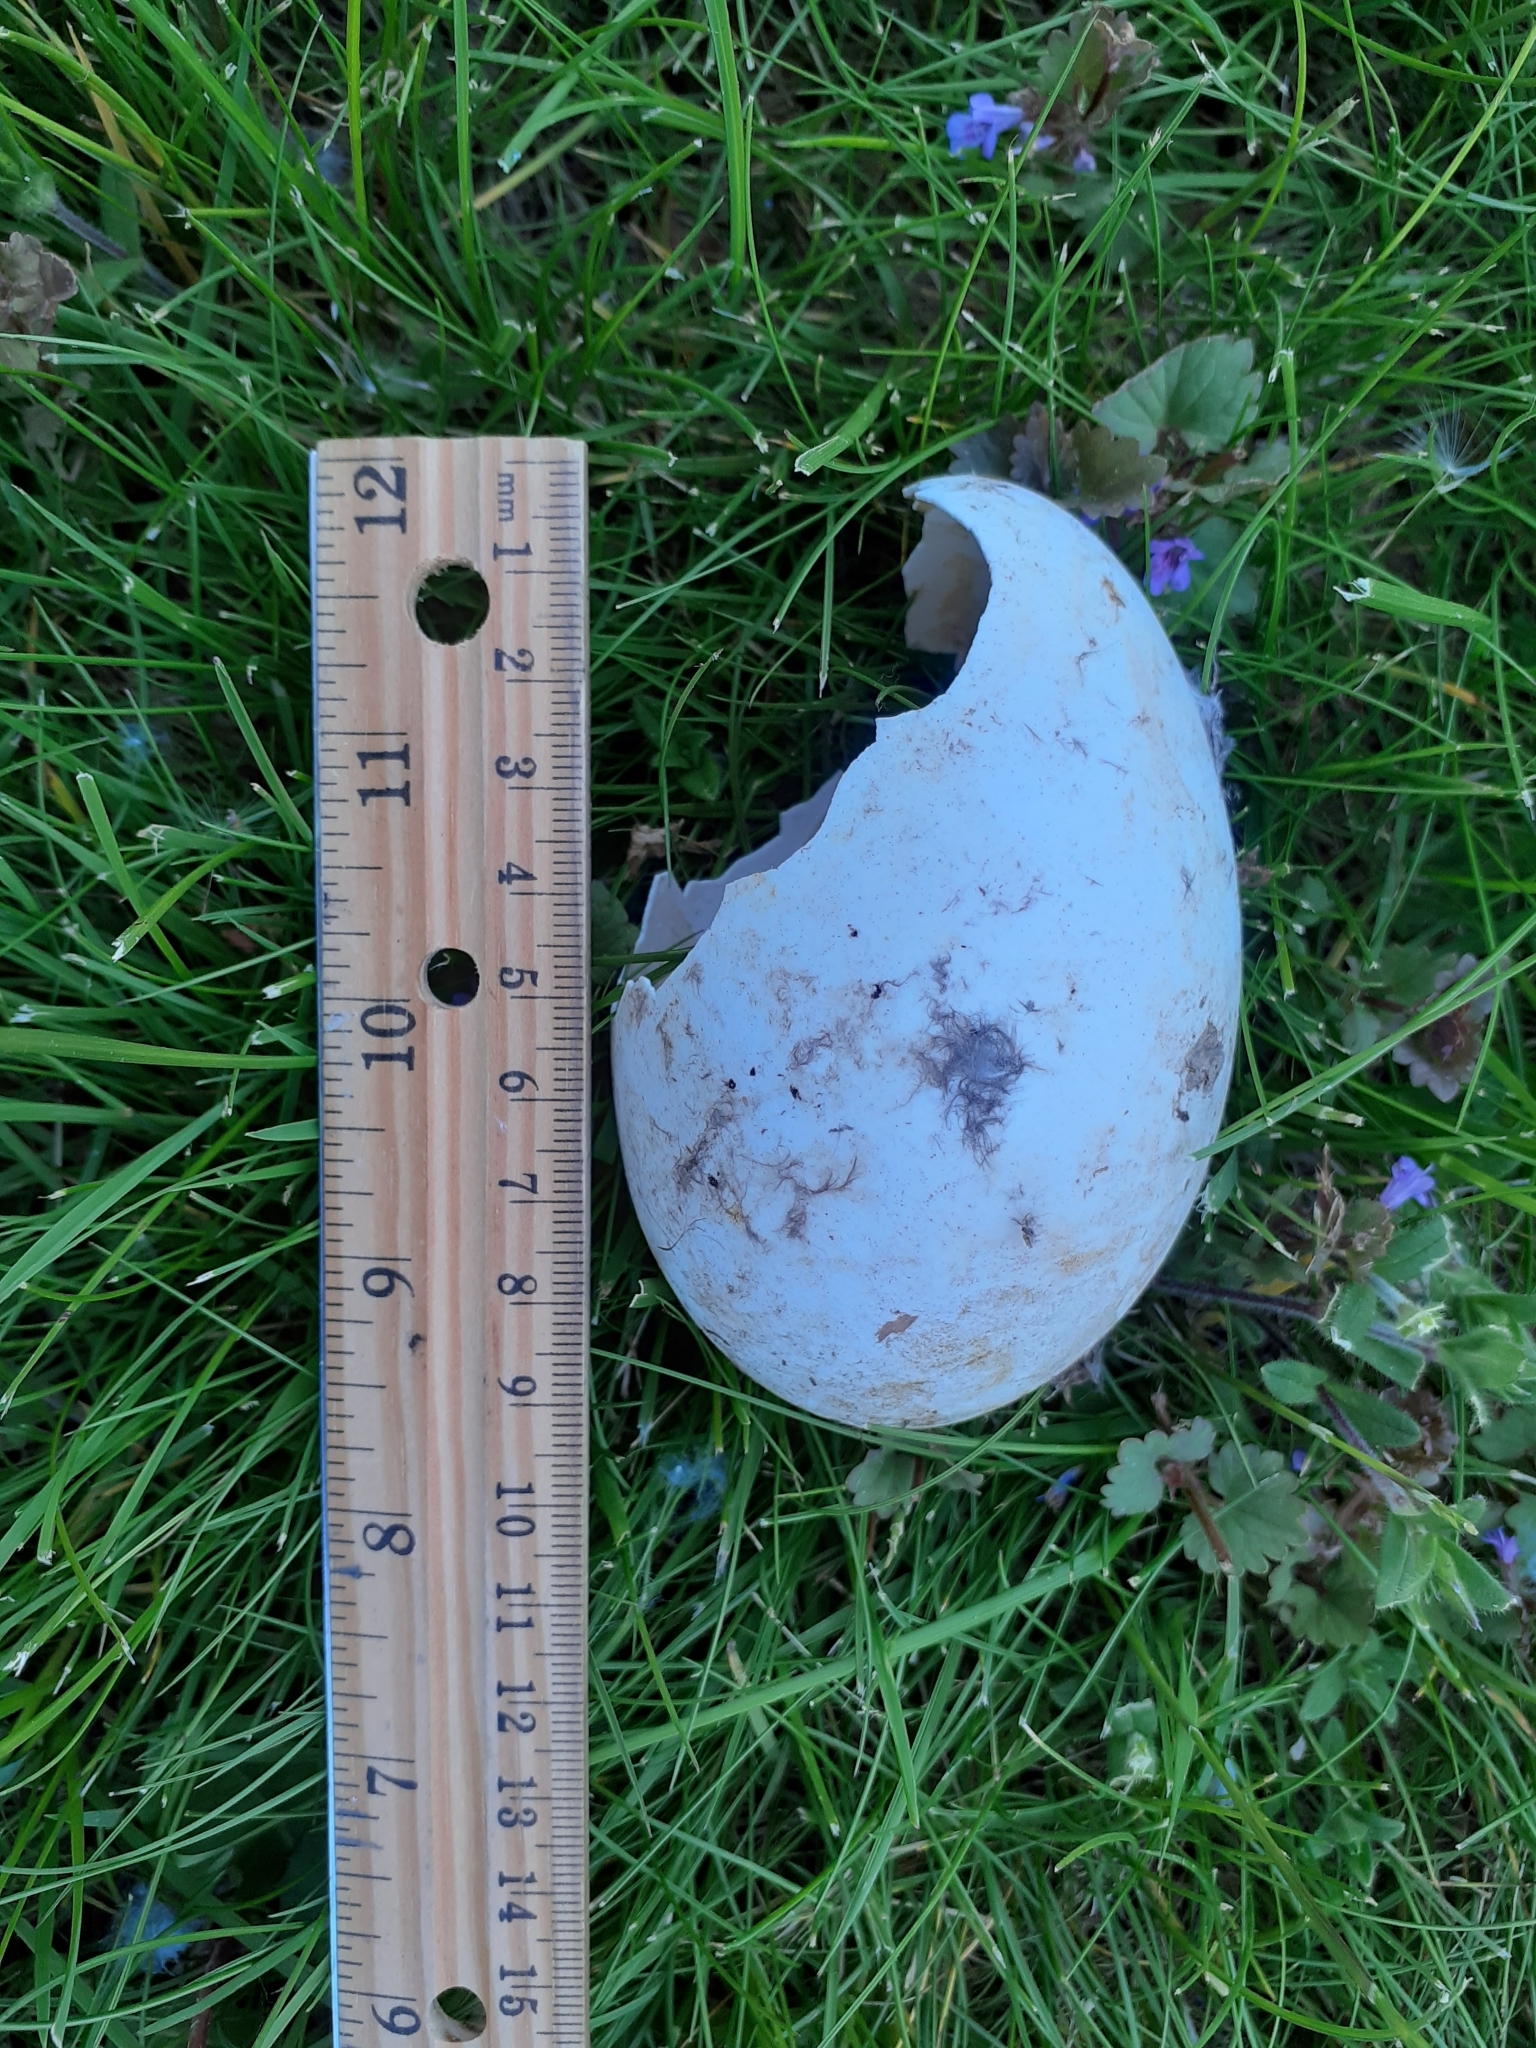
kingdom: Animalia
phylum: Chordata
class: Aves
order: Anseriformes
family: Anatidae
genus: Branta
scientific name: Branta canadensis
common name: Canada goose
